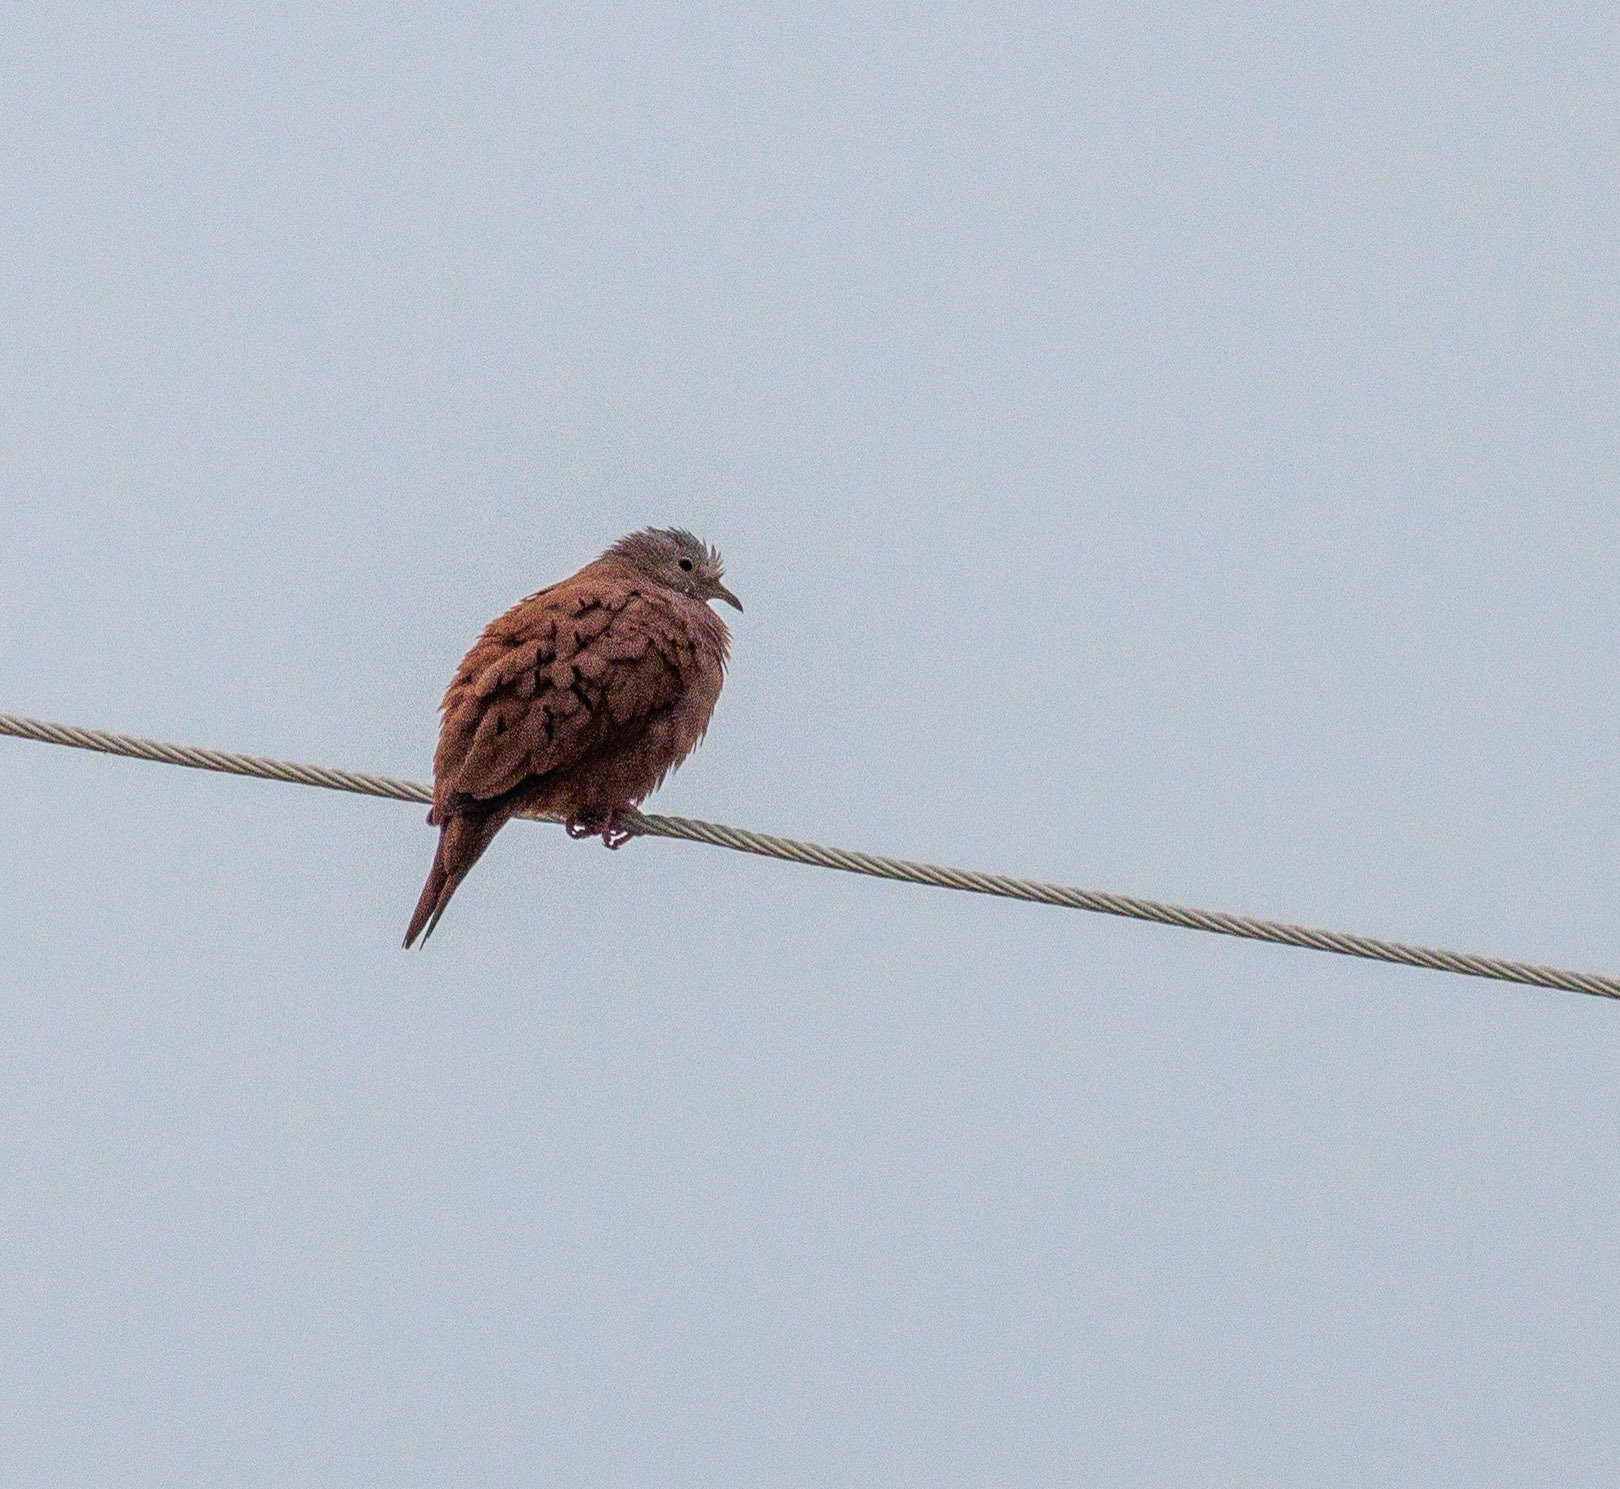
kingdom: Animalia
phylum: Chordata
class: Aves
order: Columbiformes
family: Columbidae
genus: Columbina
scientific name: Columbina talpacoti
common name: Ruddy ground dove
